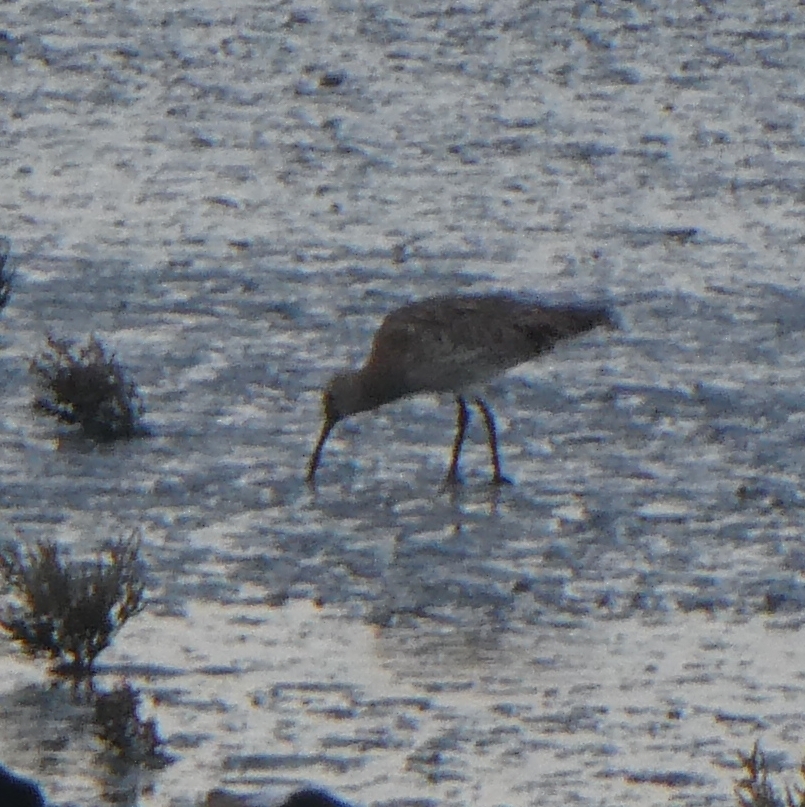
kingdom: Animalia
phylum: Chordata
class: Aves
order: Charadriiformes
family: Scolopacidae
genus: Numenius
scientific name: Numenius arquata
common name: Eurasian curlew
